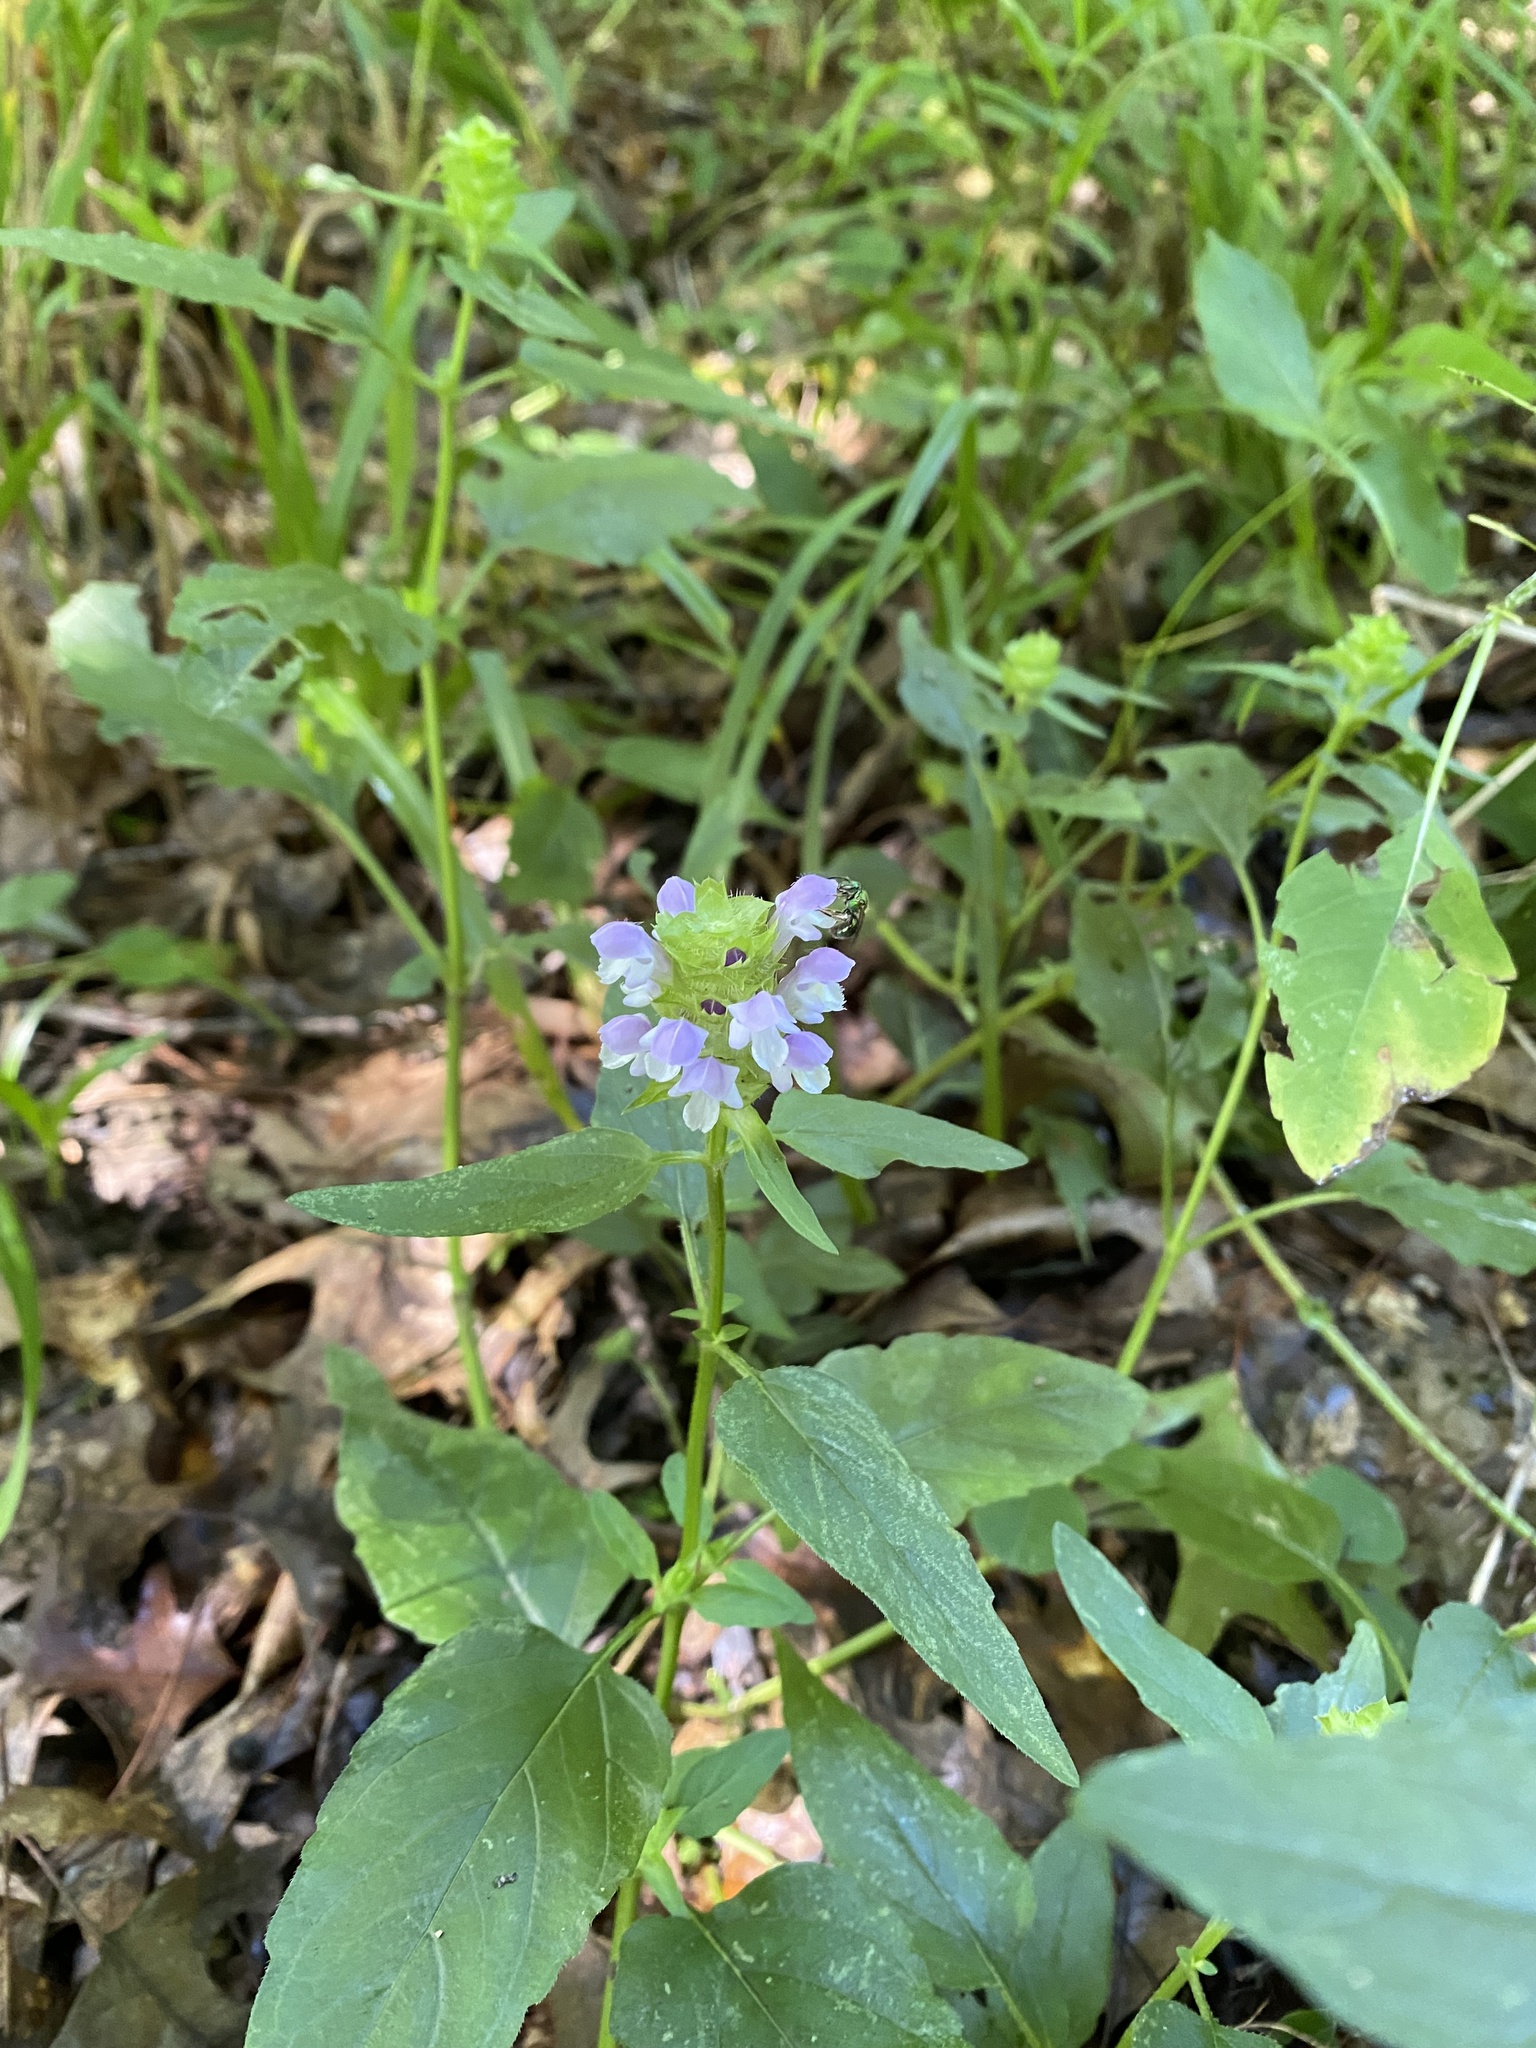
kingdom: Plantae
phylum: Tracheophyta
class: Magnoliopsida
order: Lamiales
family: Lamiaceae
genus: Prunella
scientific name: Prunella vulgaris
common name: Heal-all
